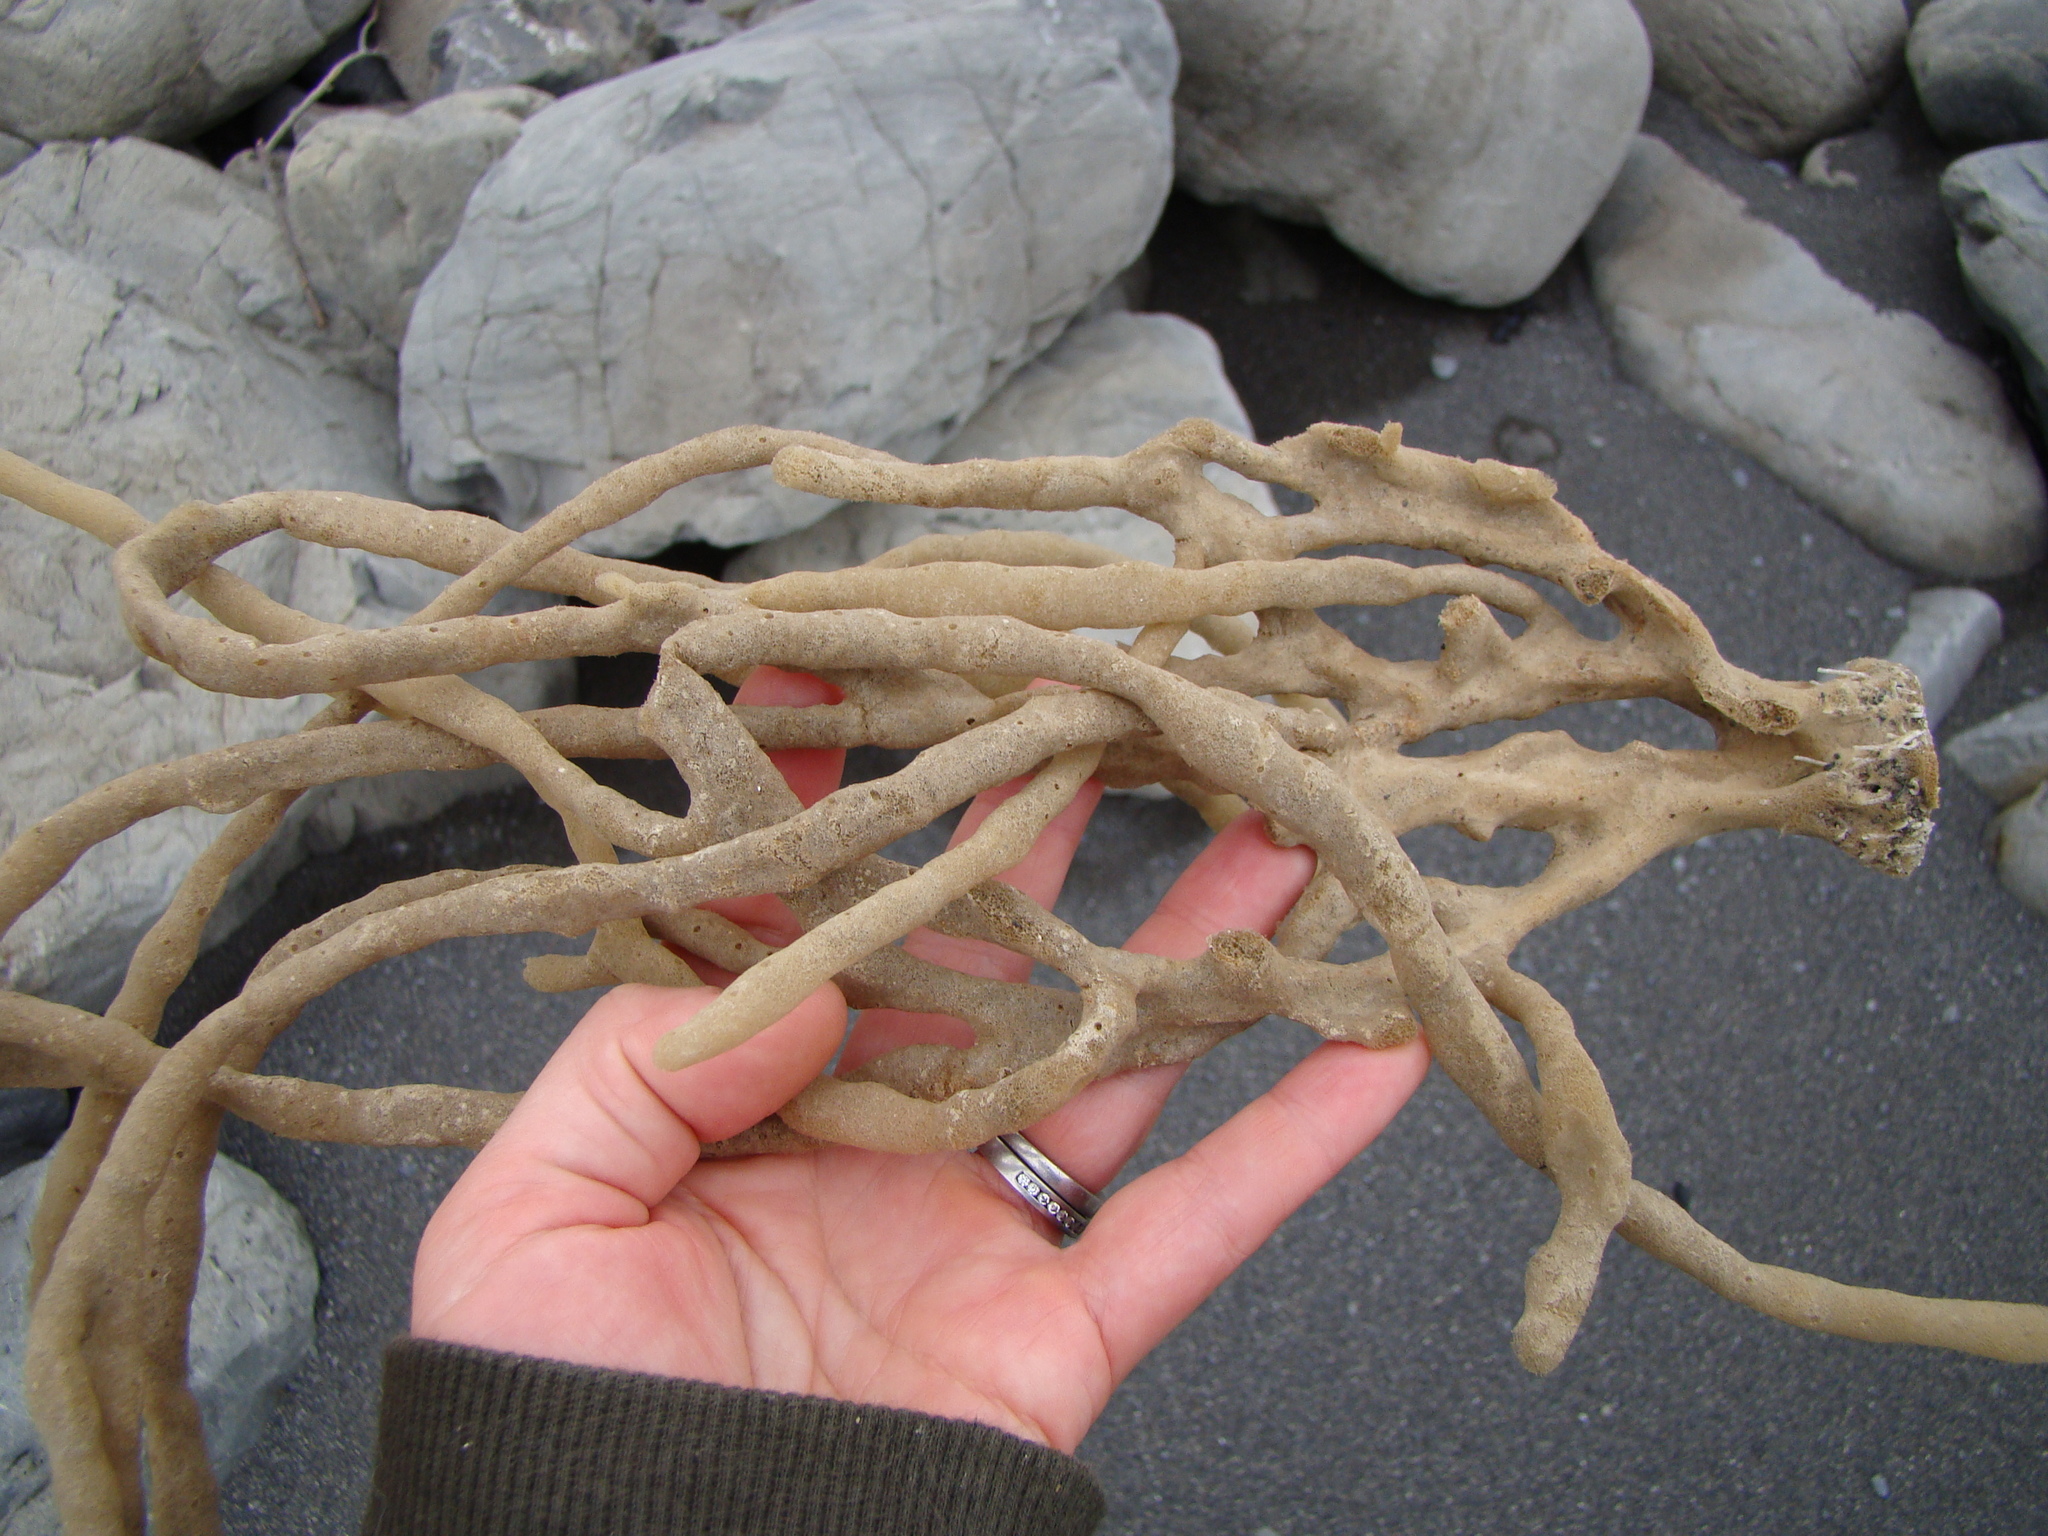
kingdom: Animalia
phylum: Porifera
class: Demospongiae
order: Haplosclerida
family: Callyspongiidae
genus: Callyspongia
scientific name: Callyspongia nuda
